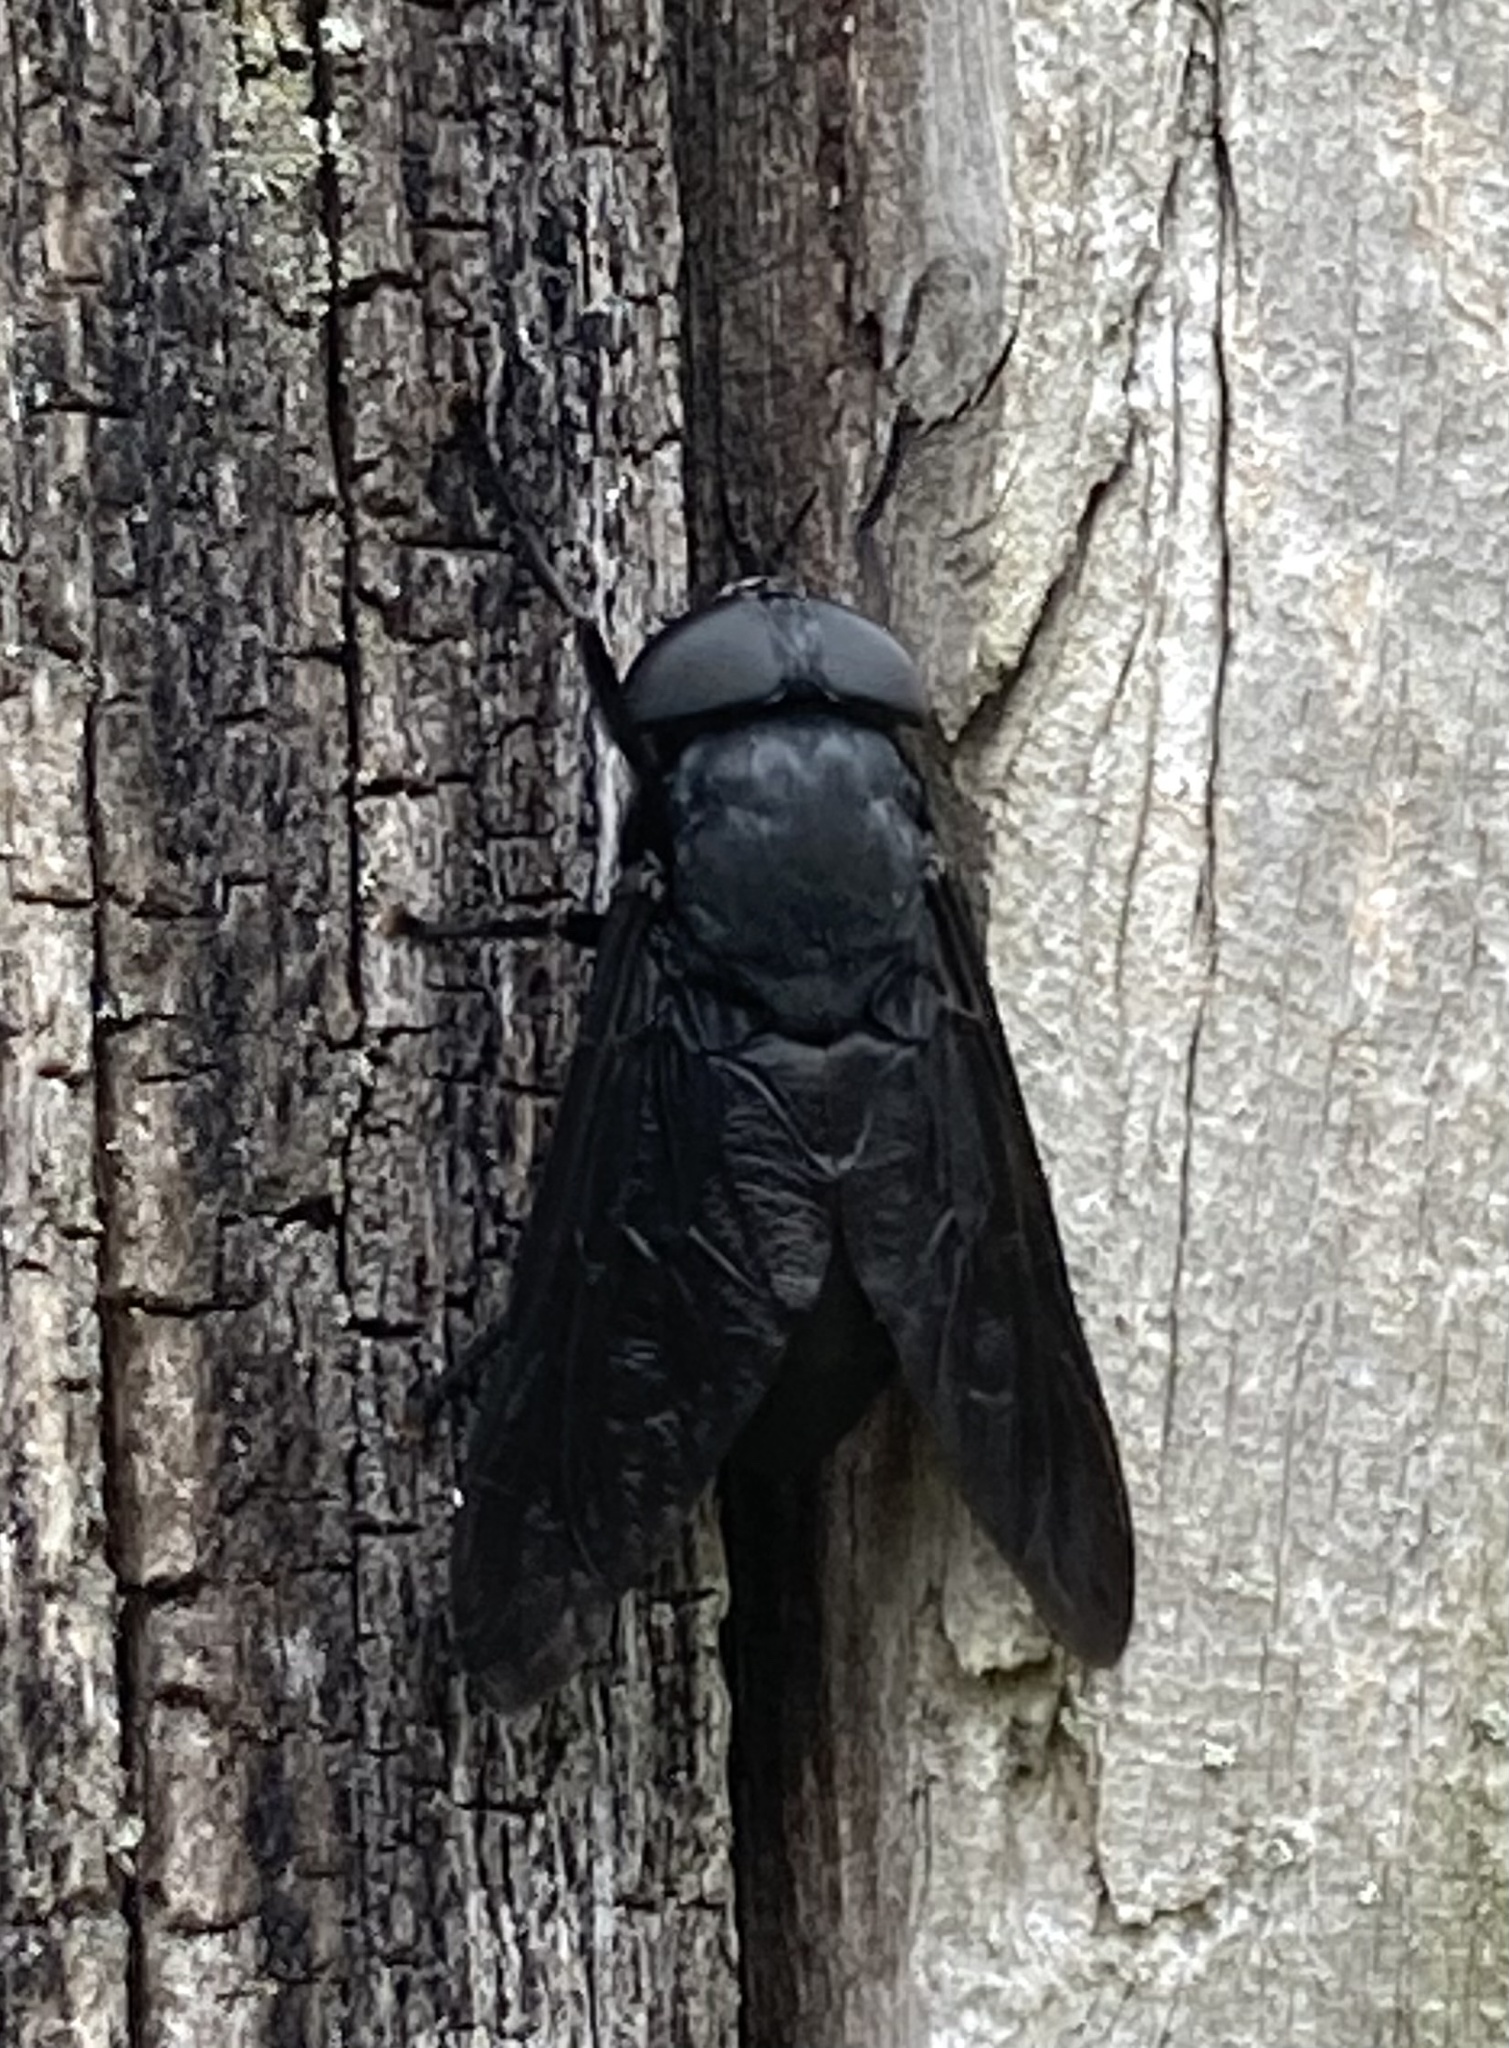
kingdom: Animalia
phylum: Arthropoda
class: Insecta
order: Diptera
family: Tabanidae
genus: Tabanus
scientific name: Tabanus atratus
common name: Black horse fly
